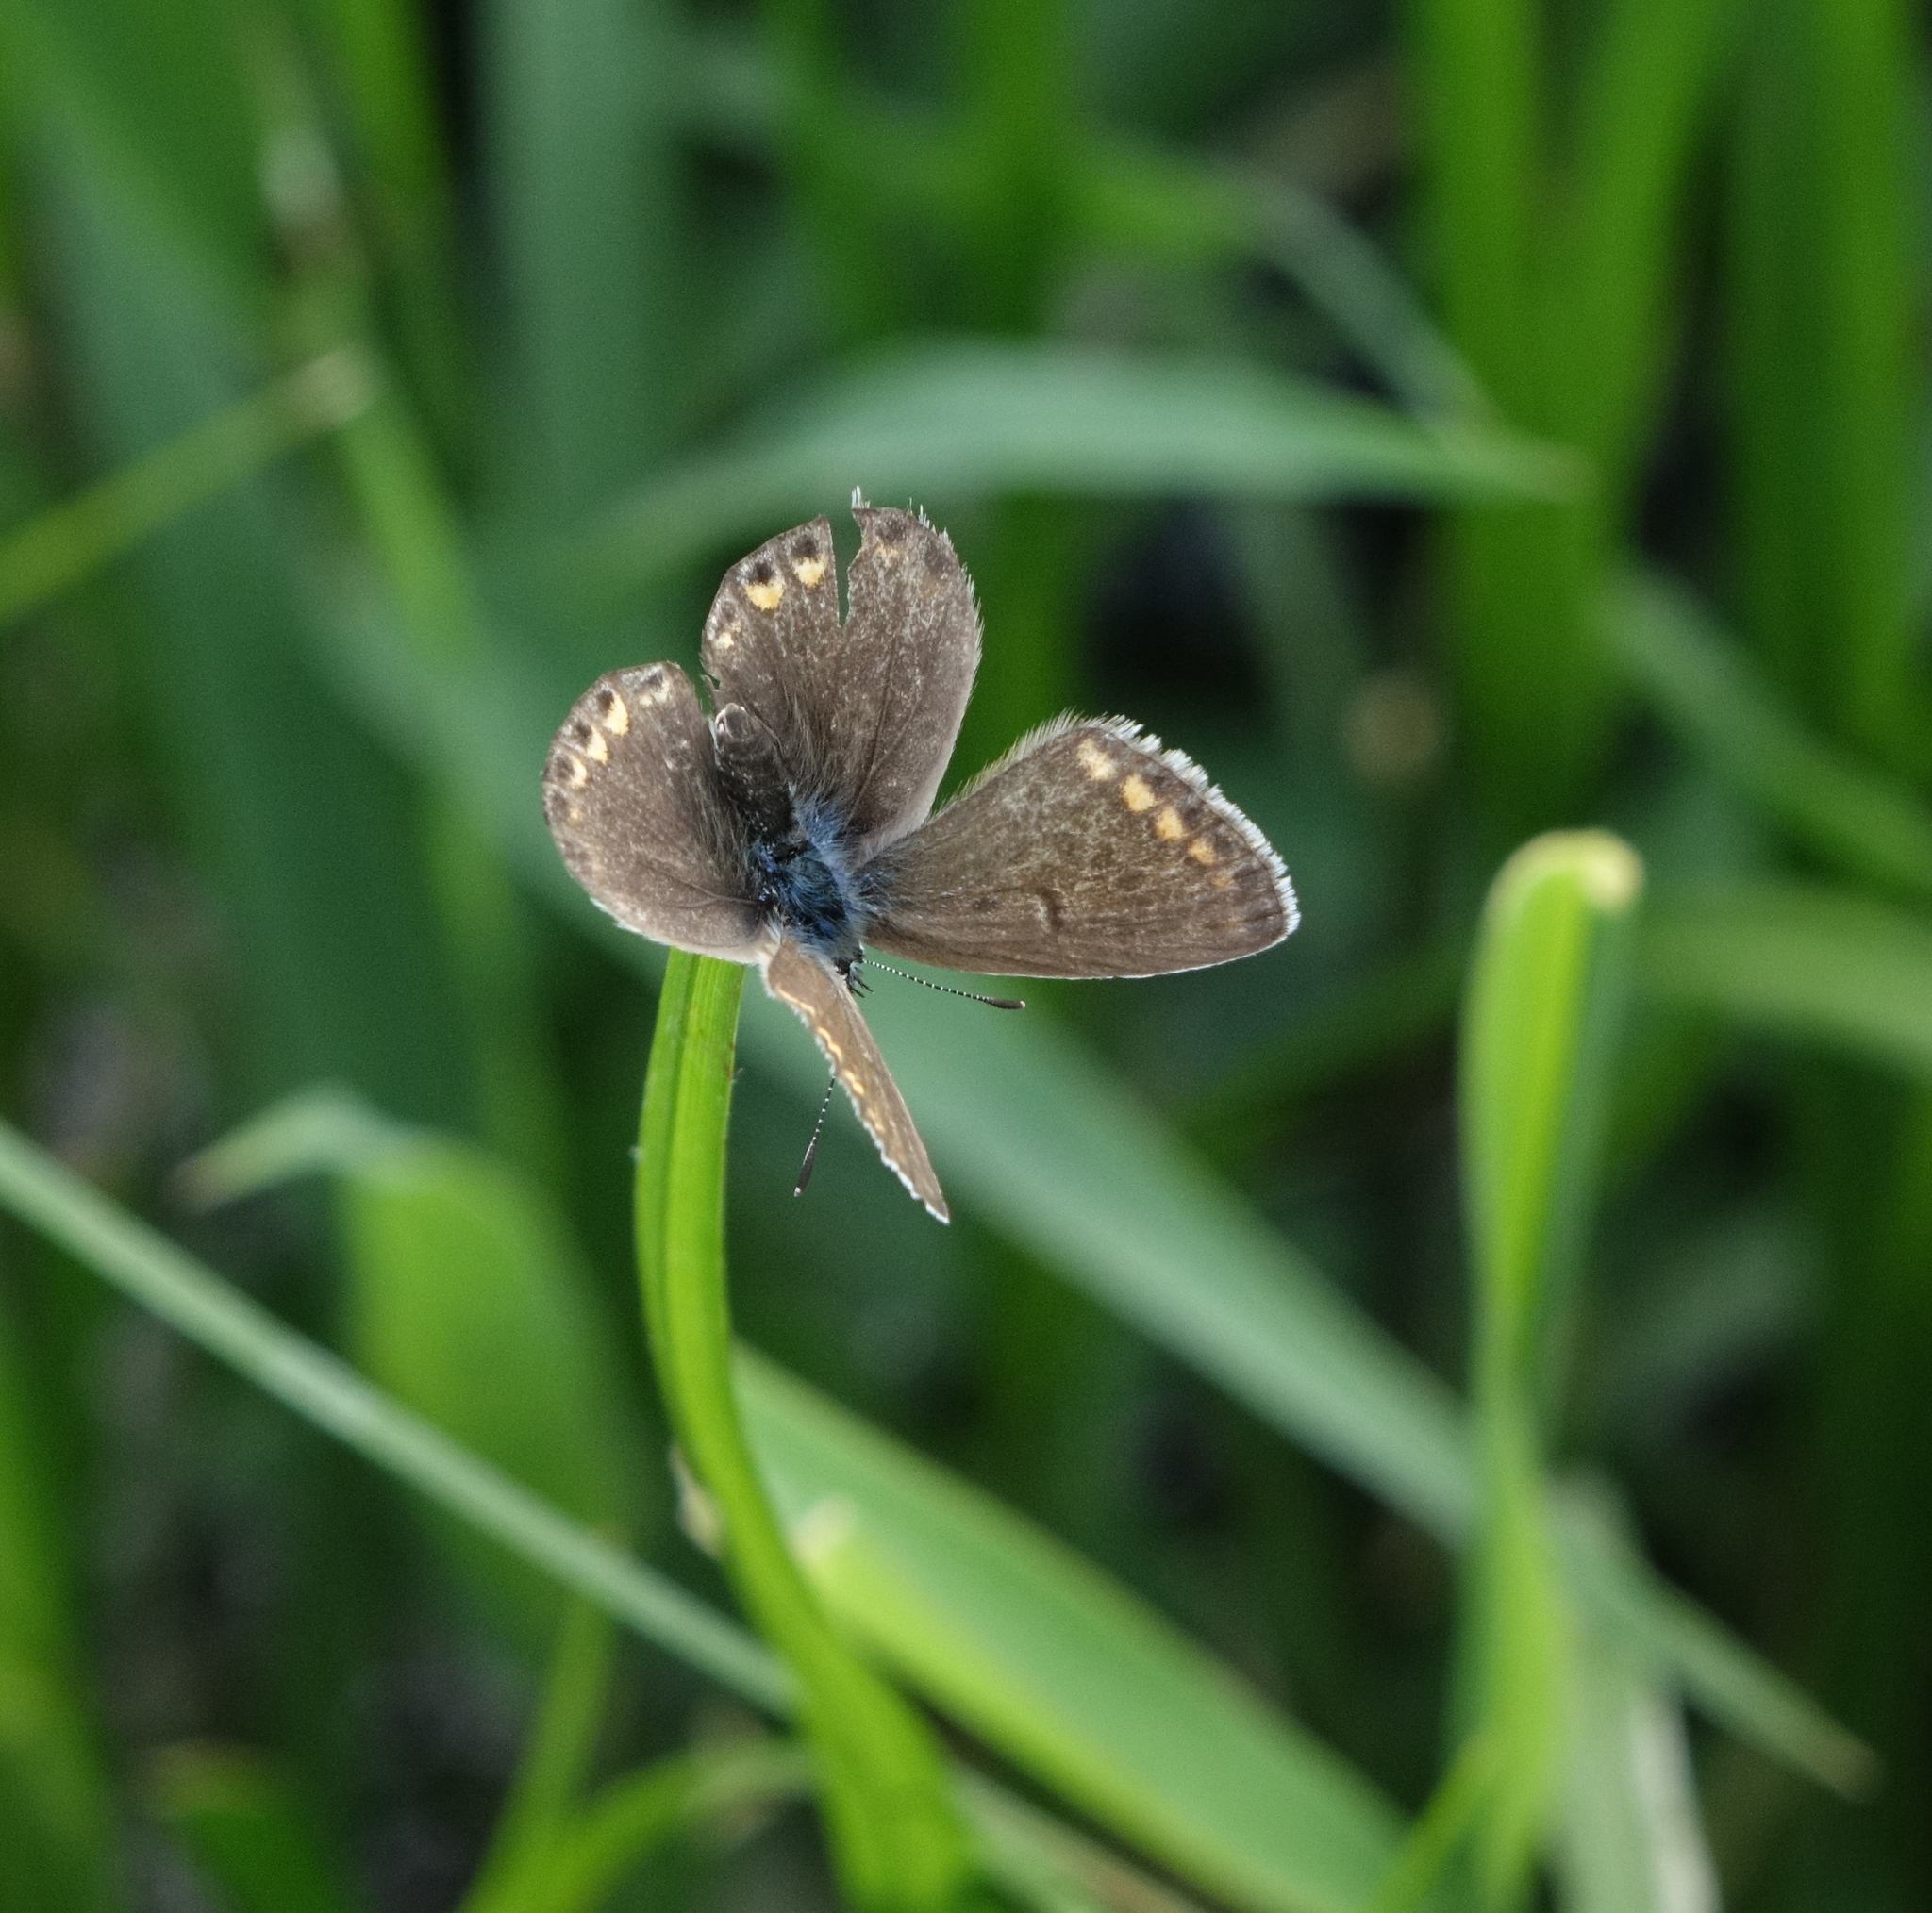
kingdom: Animalia
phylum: Arthropoda
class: Insecta
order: Lepidoptera
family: Lycaenidae
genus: Polyommatus
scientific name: Polyommatus icarus
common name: Common blue
